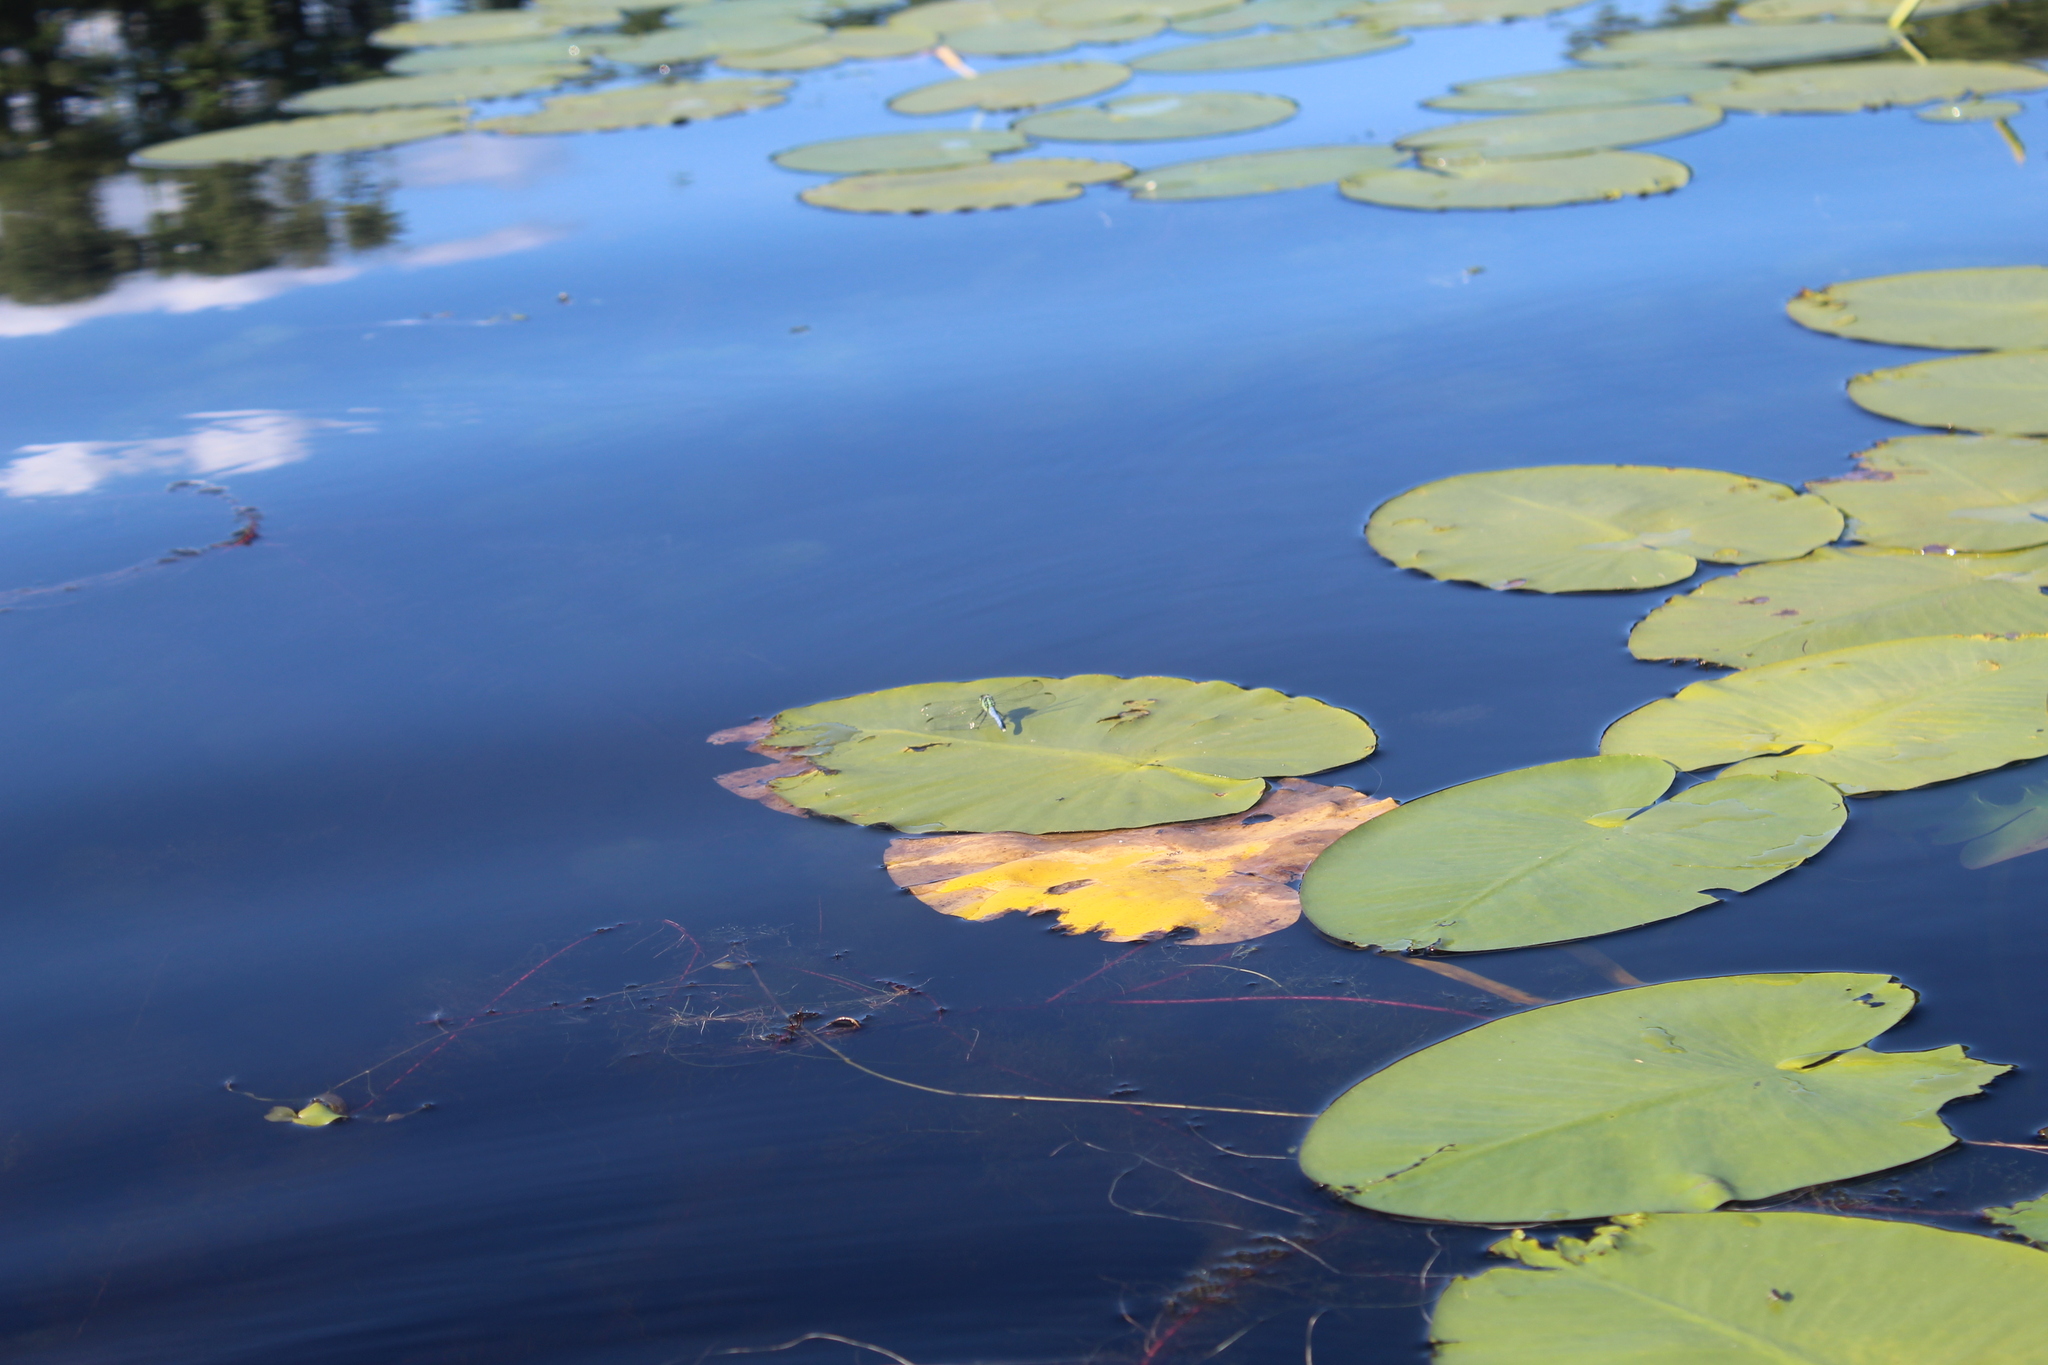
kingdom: Animalia
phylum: Arthropoda
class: Insecta
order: Odonata
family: Libellulidae
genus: Erythemis
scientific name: Erythemis simplicicollis
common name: Eastern pondhawk
